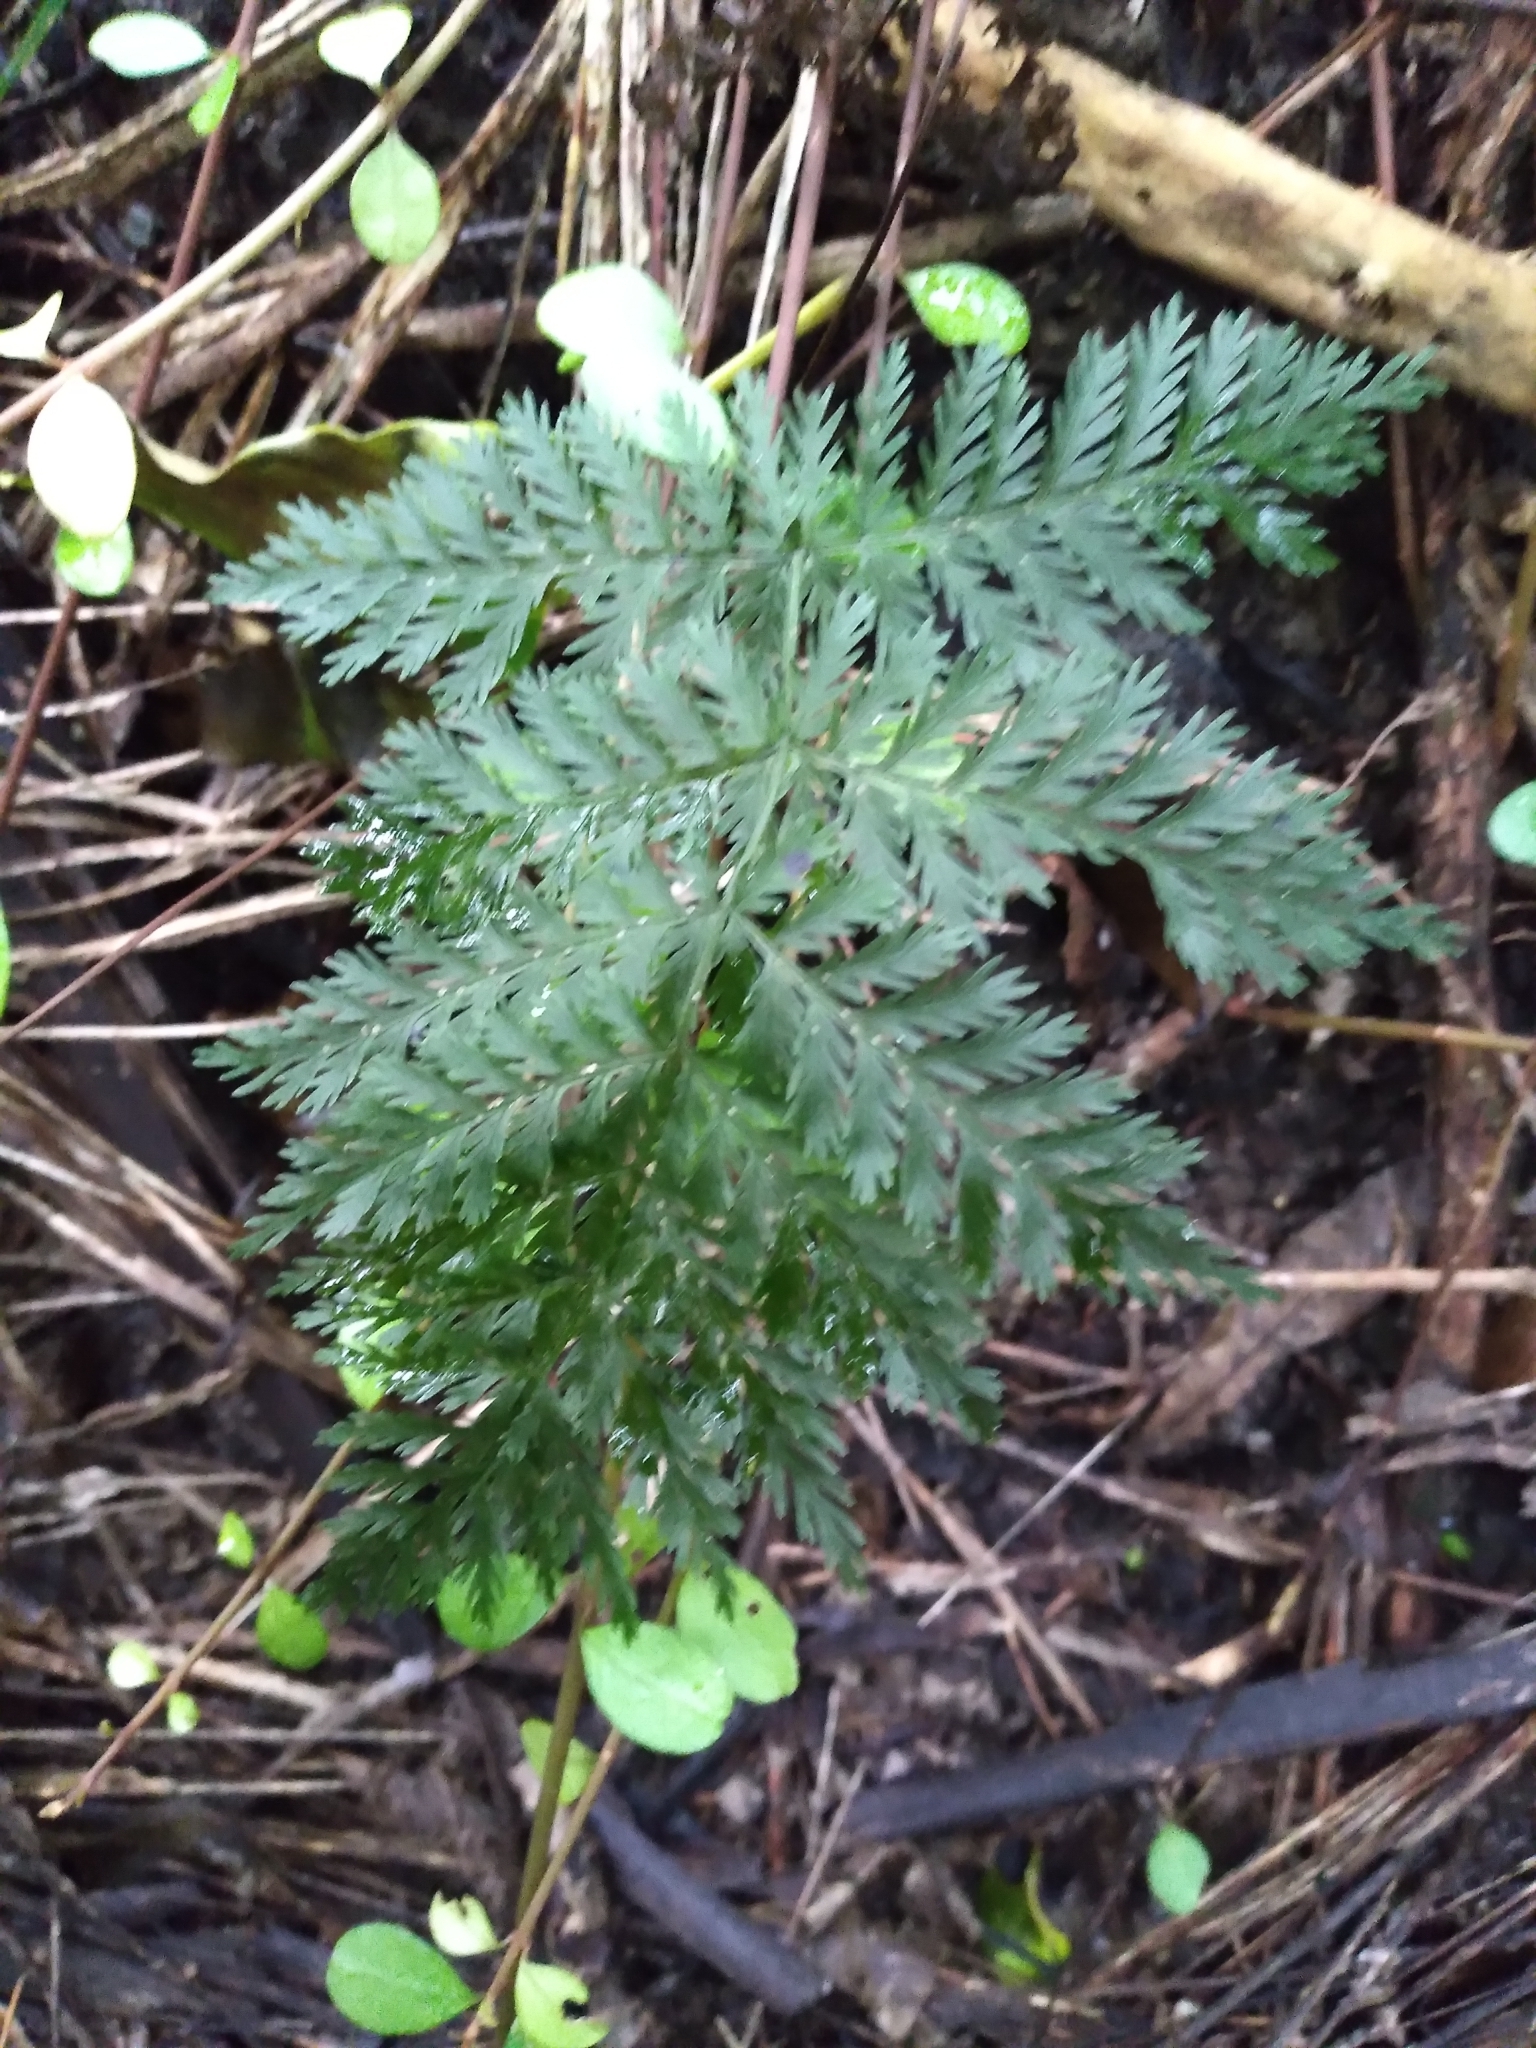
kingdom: Plantae
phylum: Tracheophyta
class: Polypodiopsida
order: Osmundales
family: Osmundaceae
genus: Leptopteris
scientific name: Leptopteris hymenophylloides
